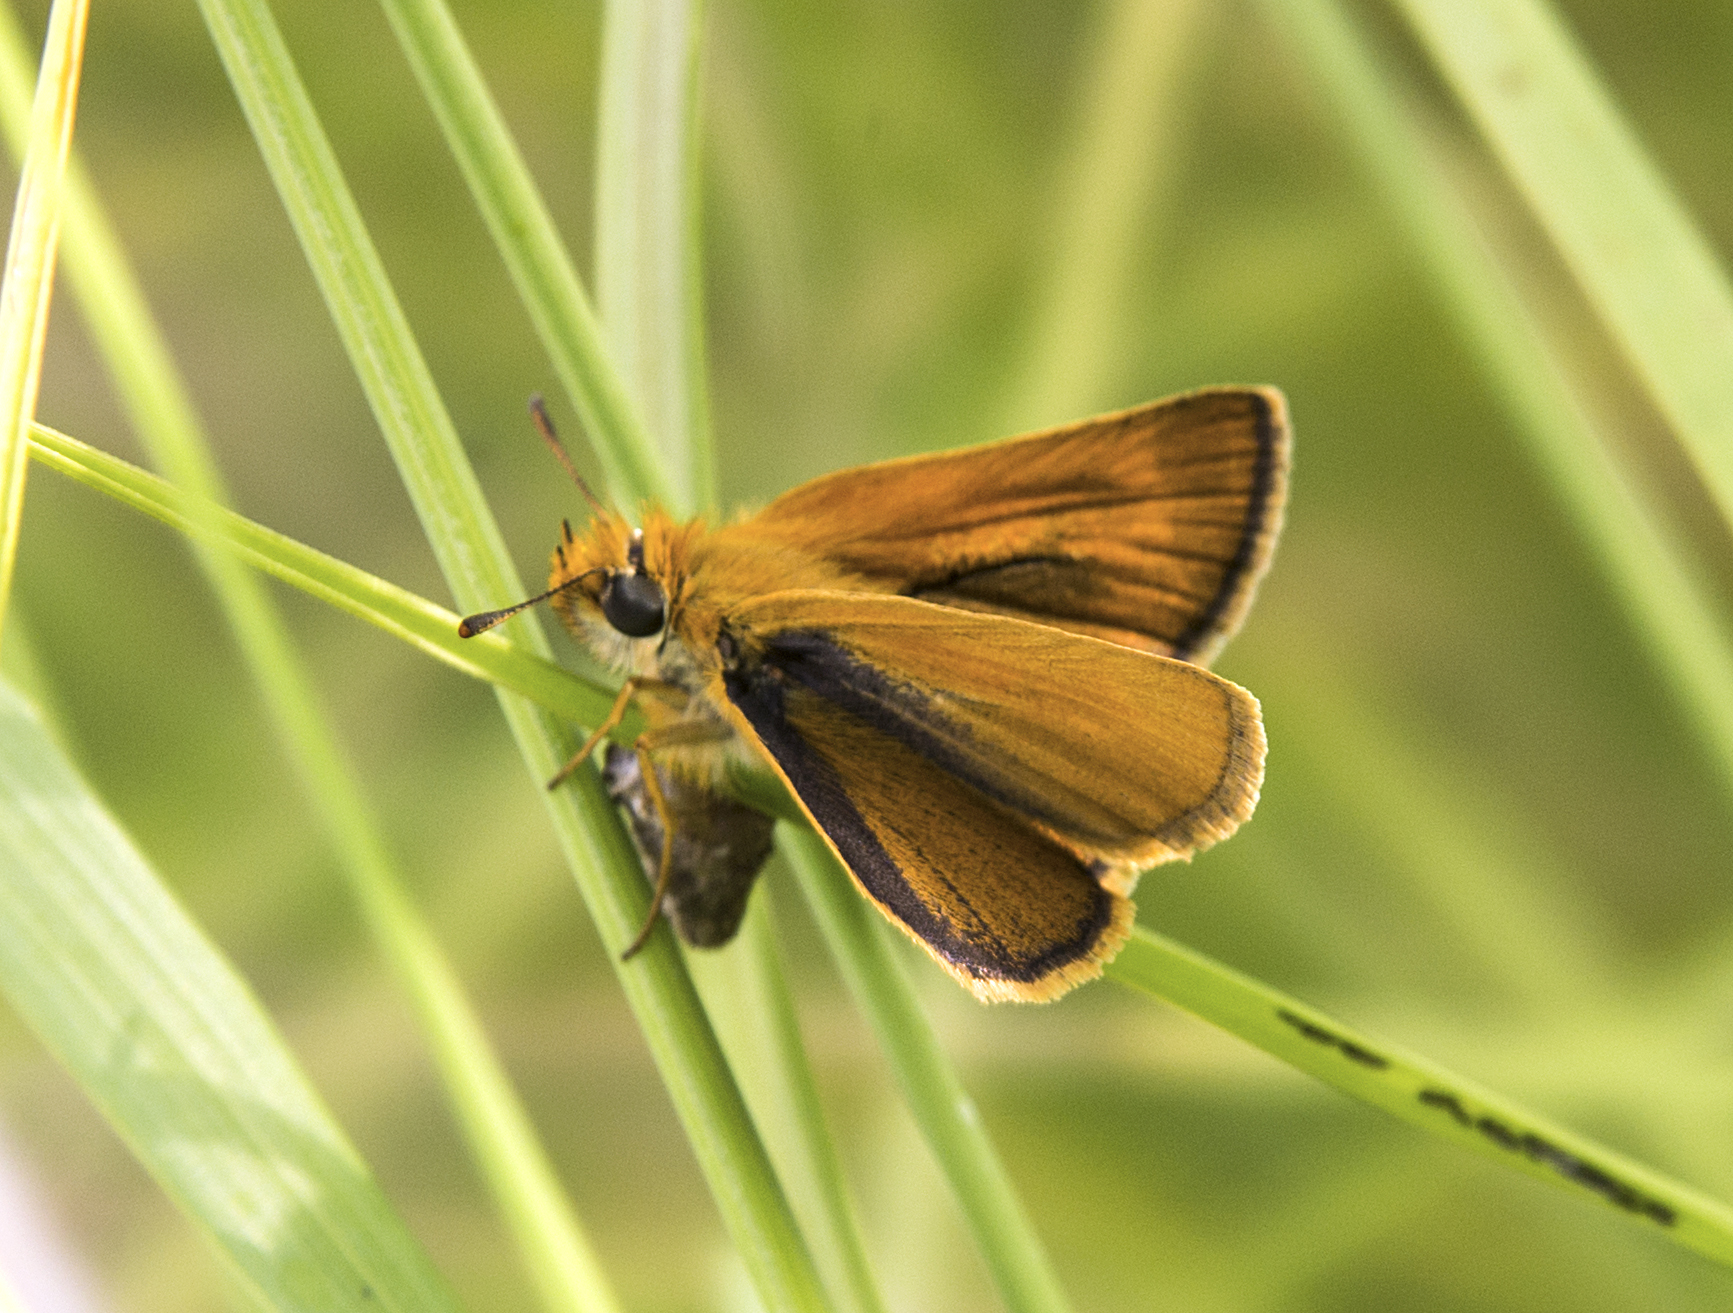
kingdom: Animalia
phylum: Arthropoda
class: Insecta
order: Lepidoptera
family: Hesperiidae
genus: Thymelicus
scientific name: Thymelicus acteon
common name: Lulworth skipper
